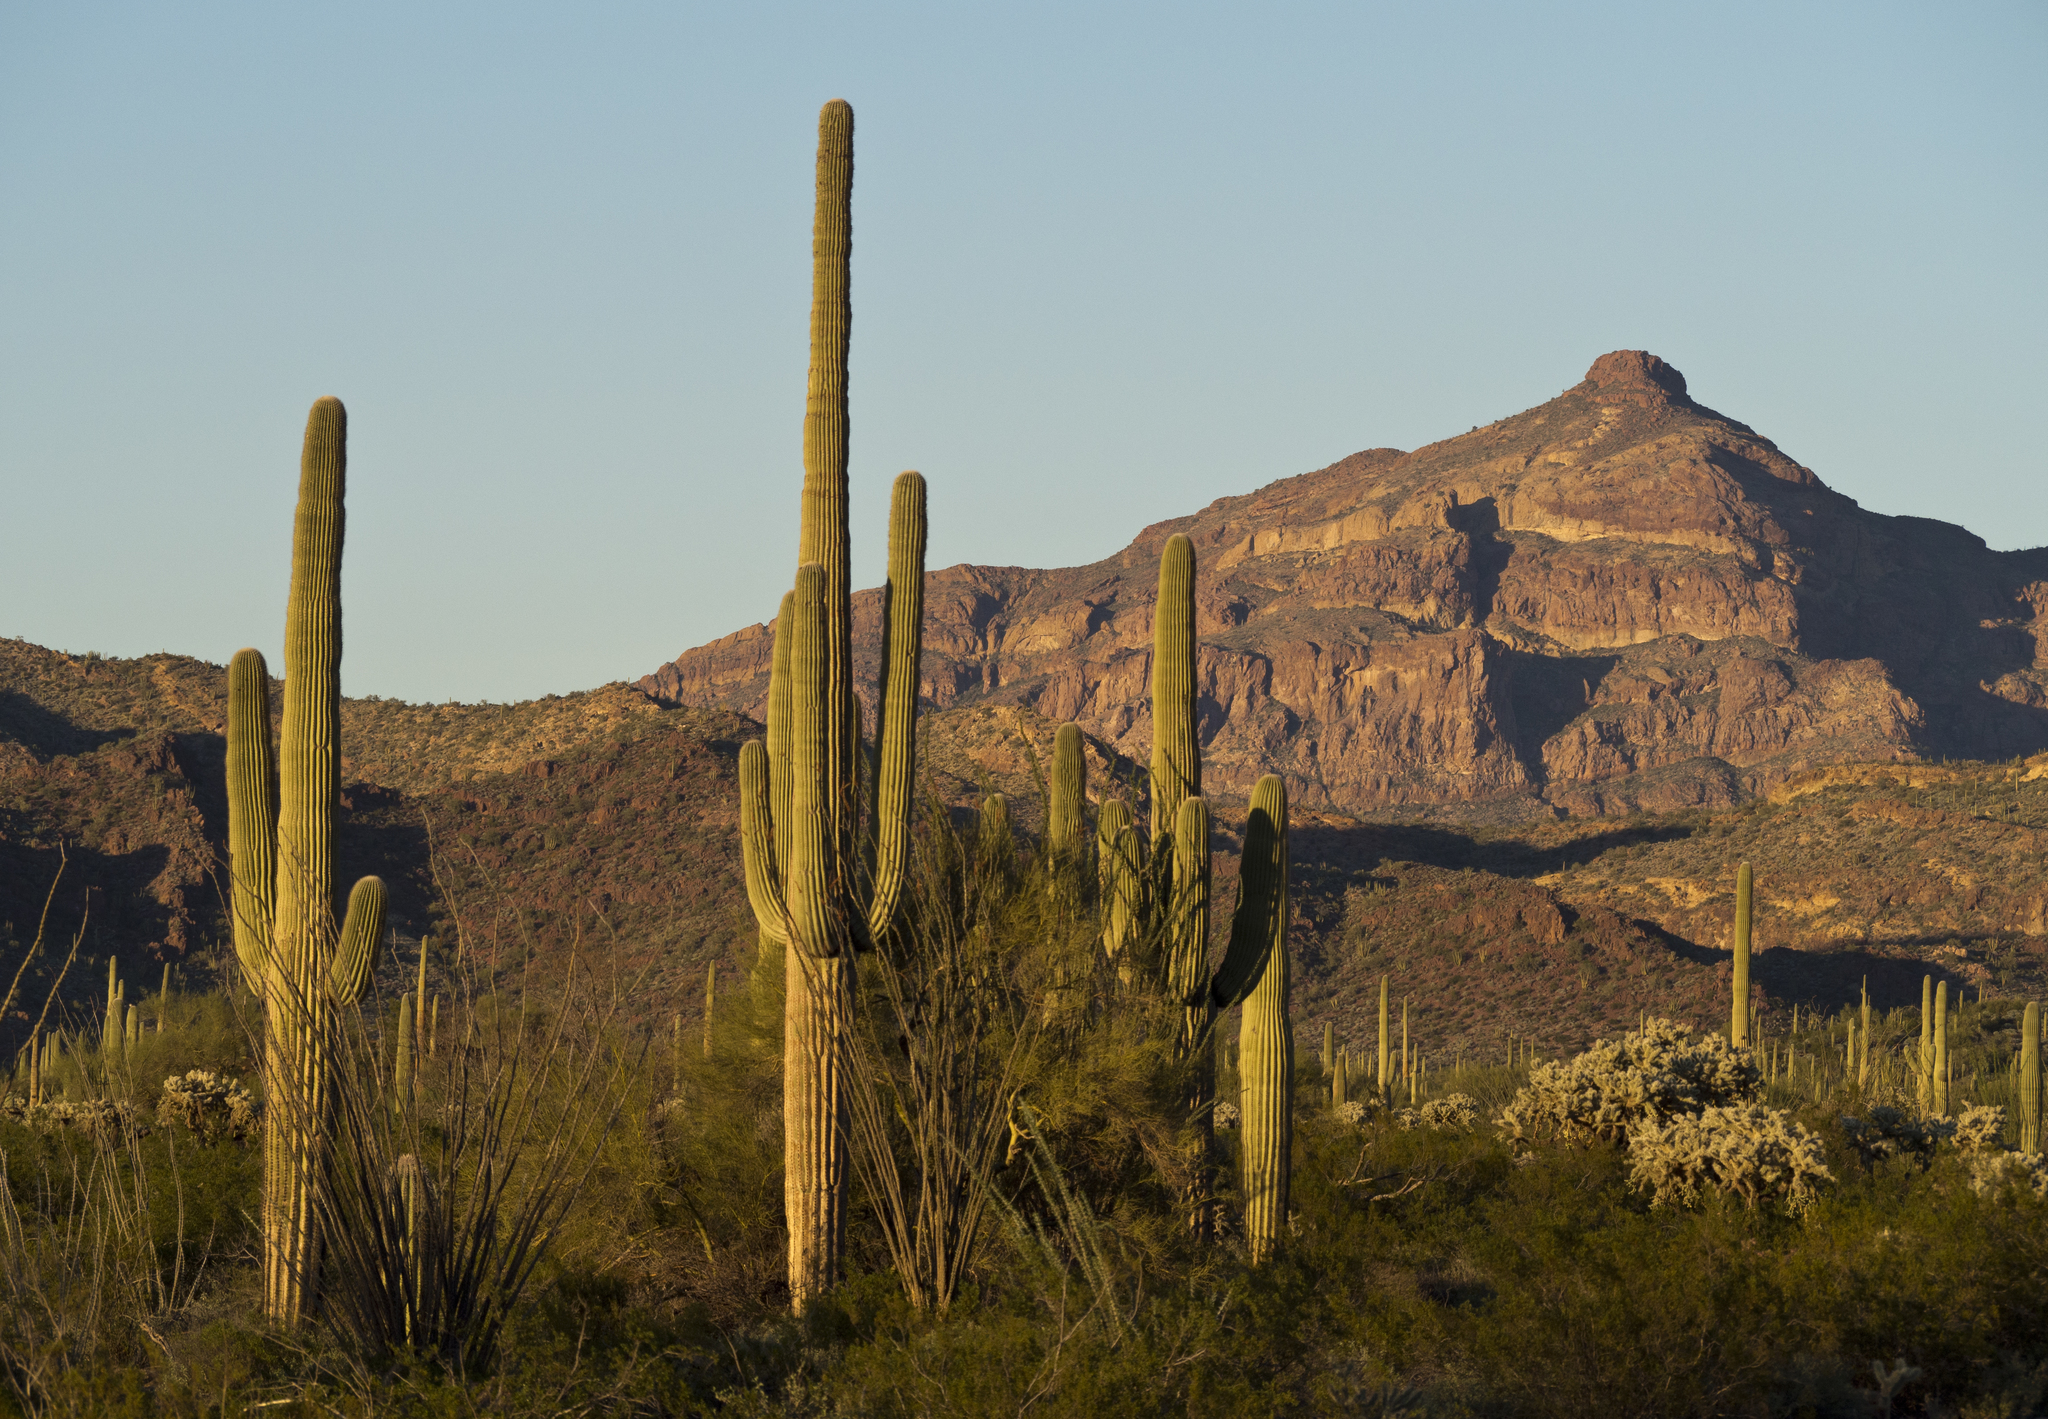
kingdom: Plantae
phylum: Tracheophyta
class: Magnoliopsida
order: Caryophyllales
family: Cactaceae
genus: Carnegiea
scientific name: Carnegiea gigantea
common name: Saguaro
